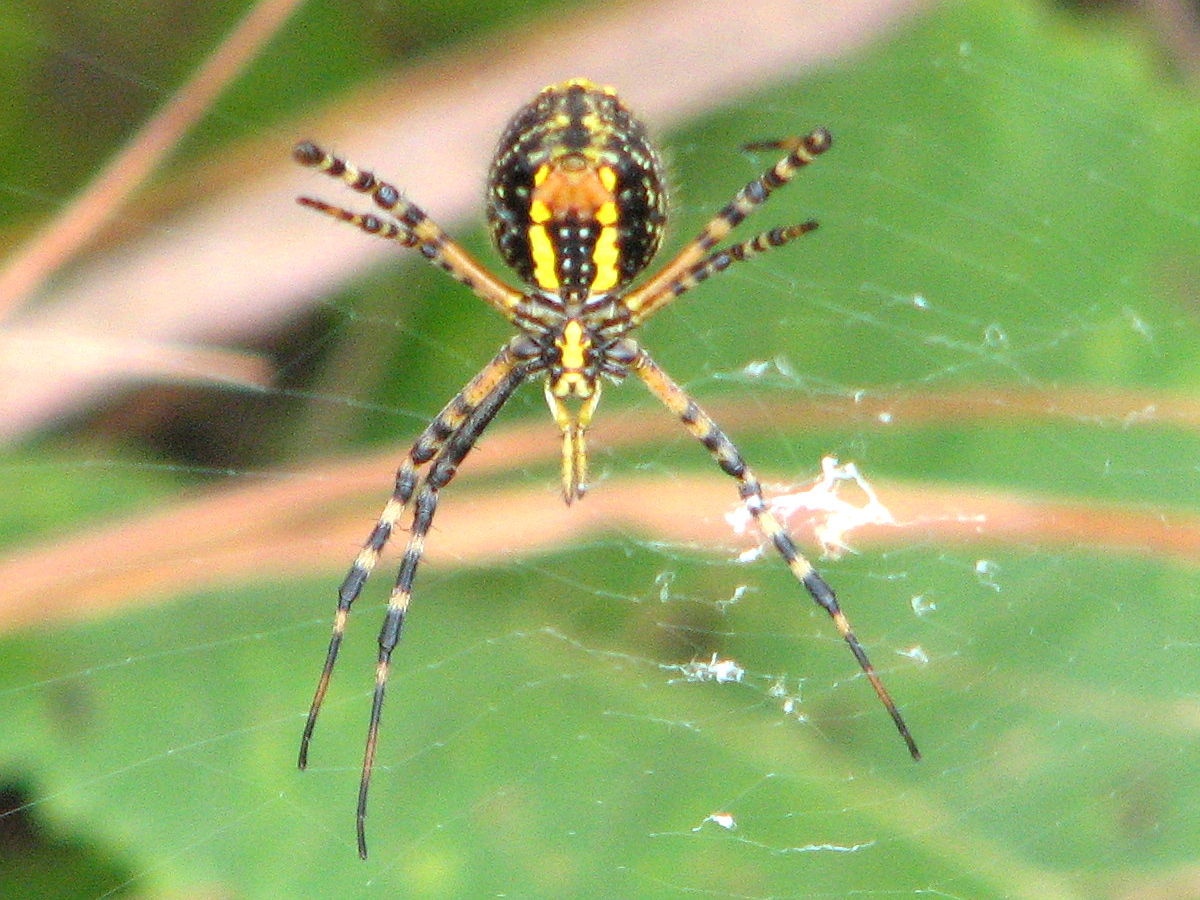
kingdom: Animalia
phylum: Arthropoda
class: Arachnida
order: Araneae
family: Araneidae
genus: Argiope
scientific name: Argiope trifasciata
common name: Banded garden spider
